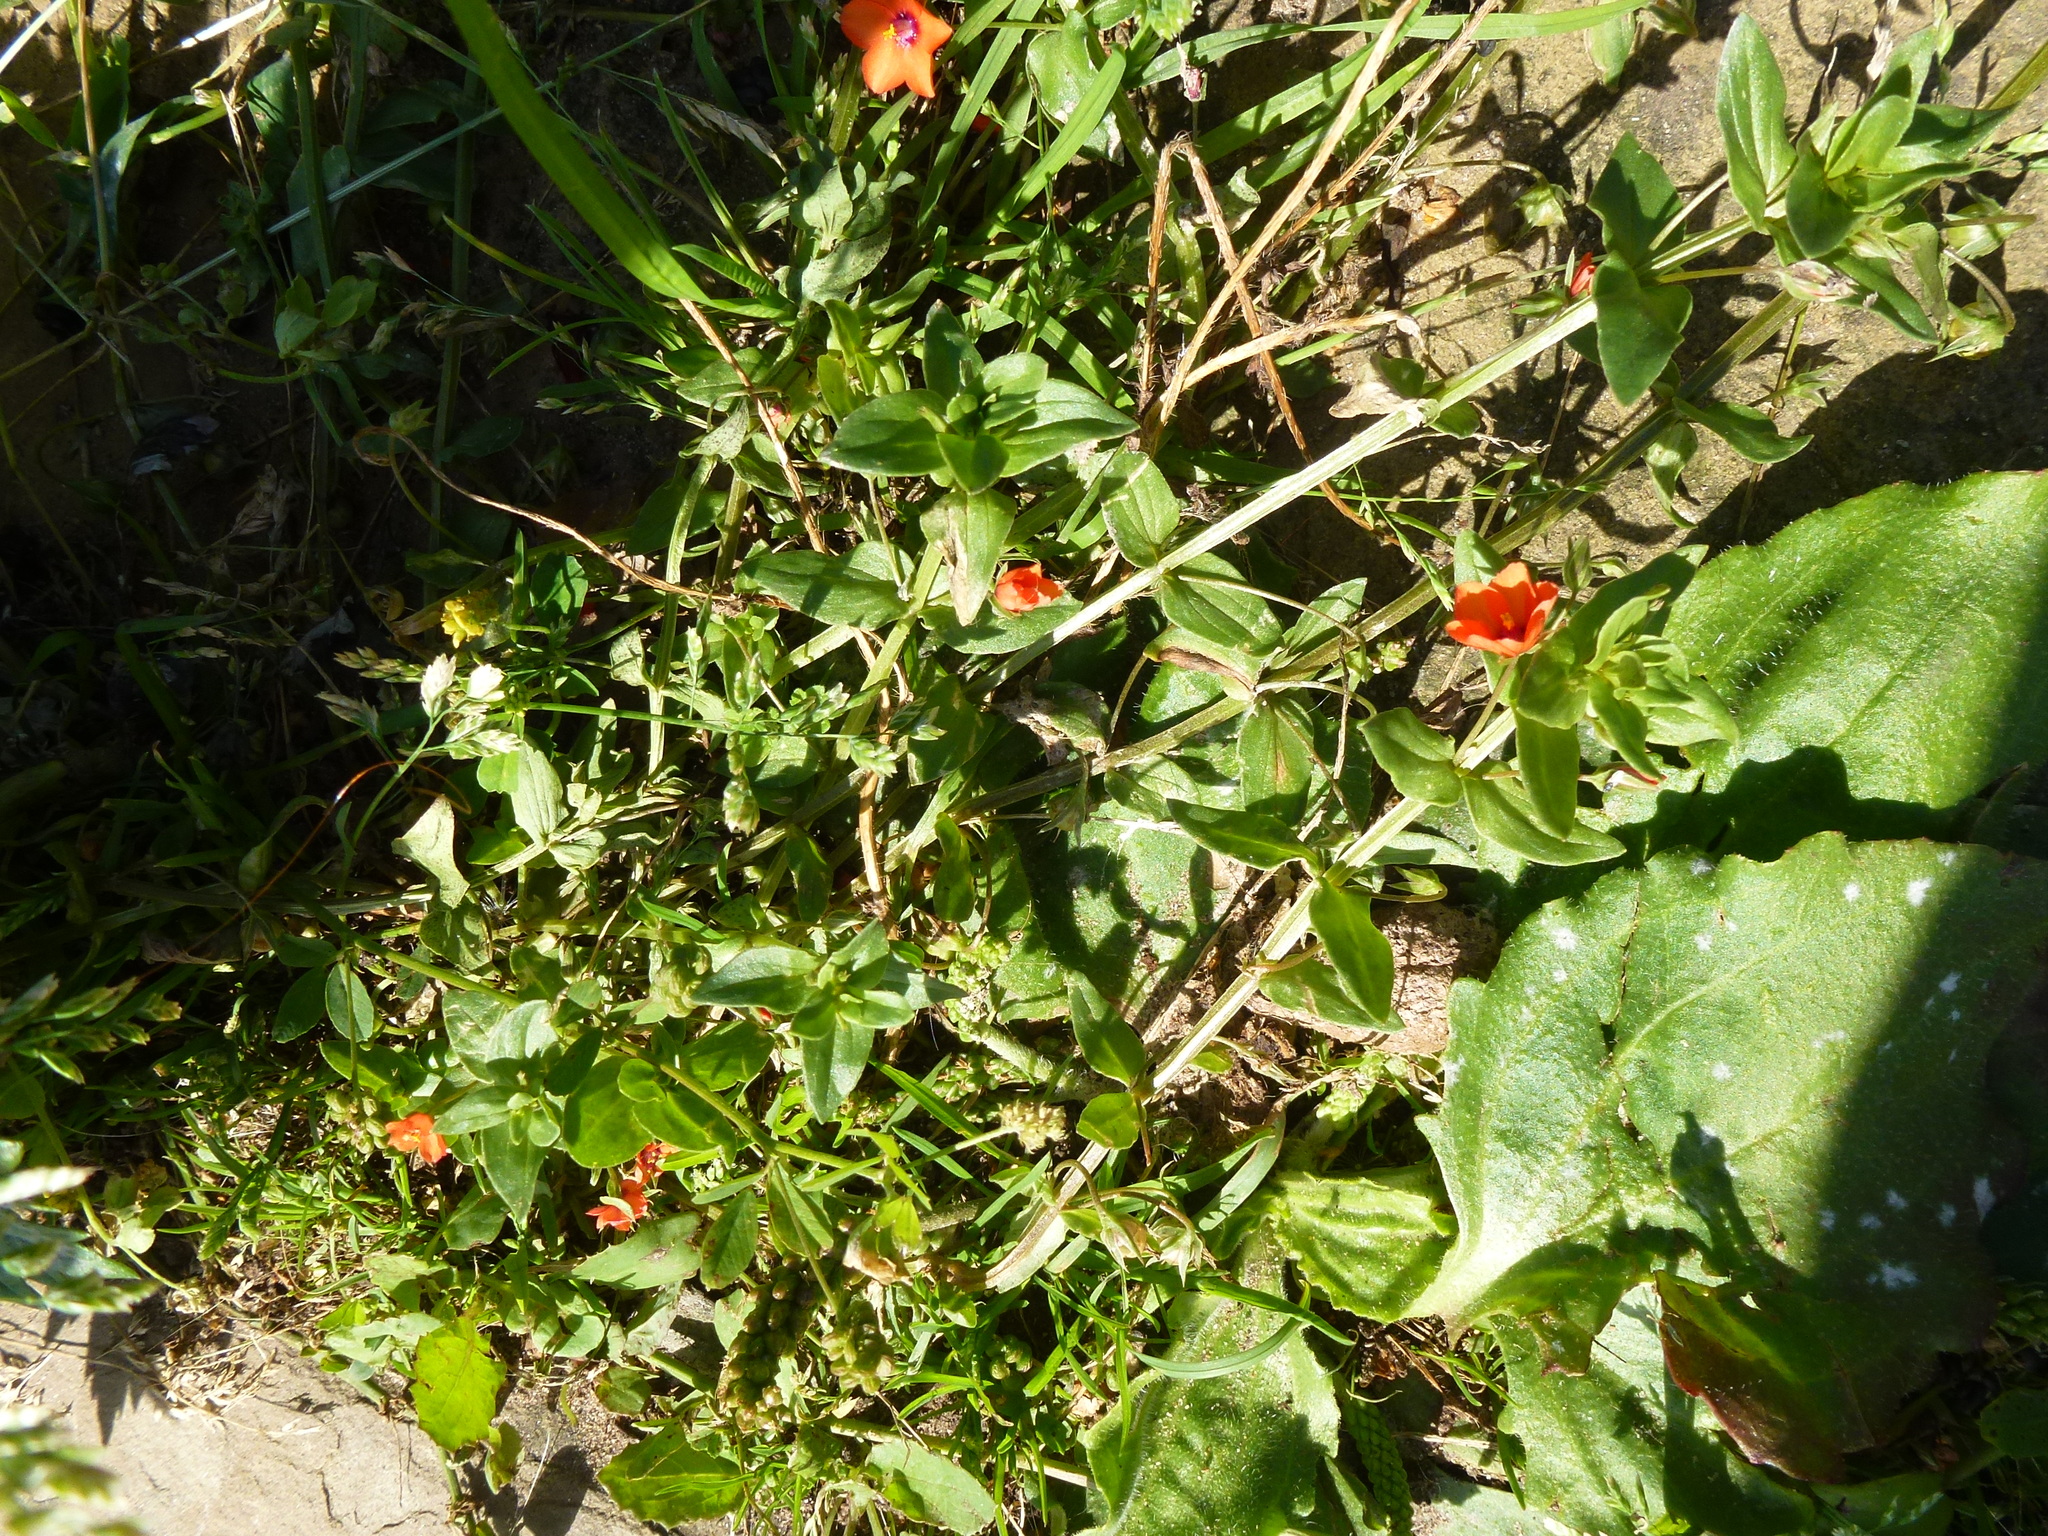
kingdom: Plantae
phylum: Tracheophyta
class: Magnoliopsida
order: Ericales
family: Primulaceae
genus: Lysimachia
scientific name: Lysimachia arvensis
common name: Scarlet pimpernel
